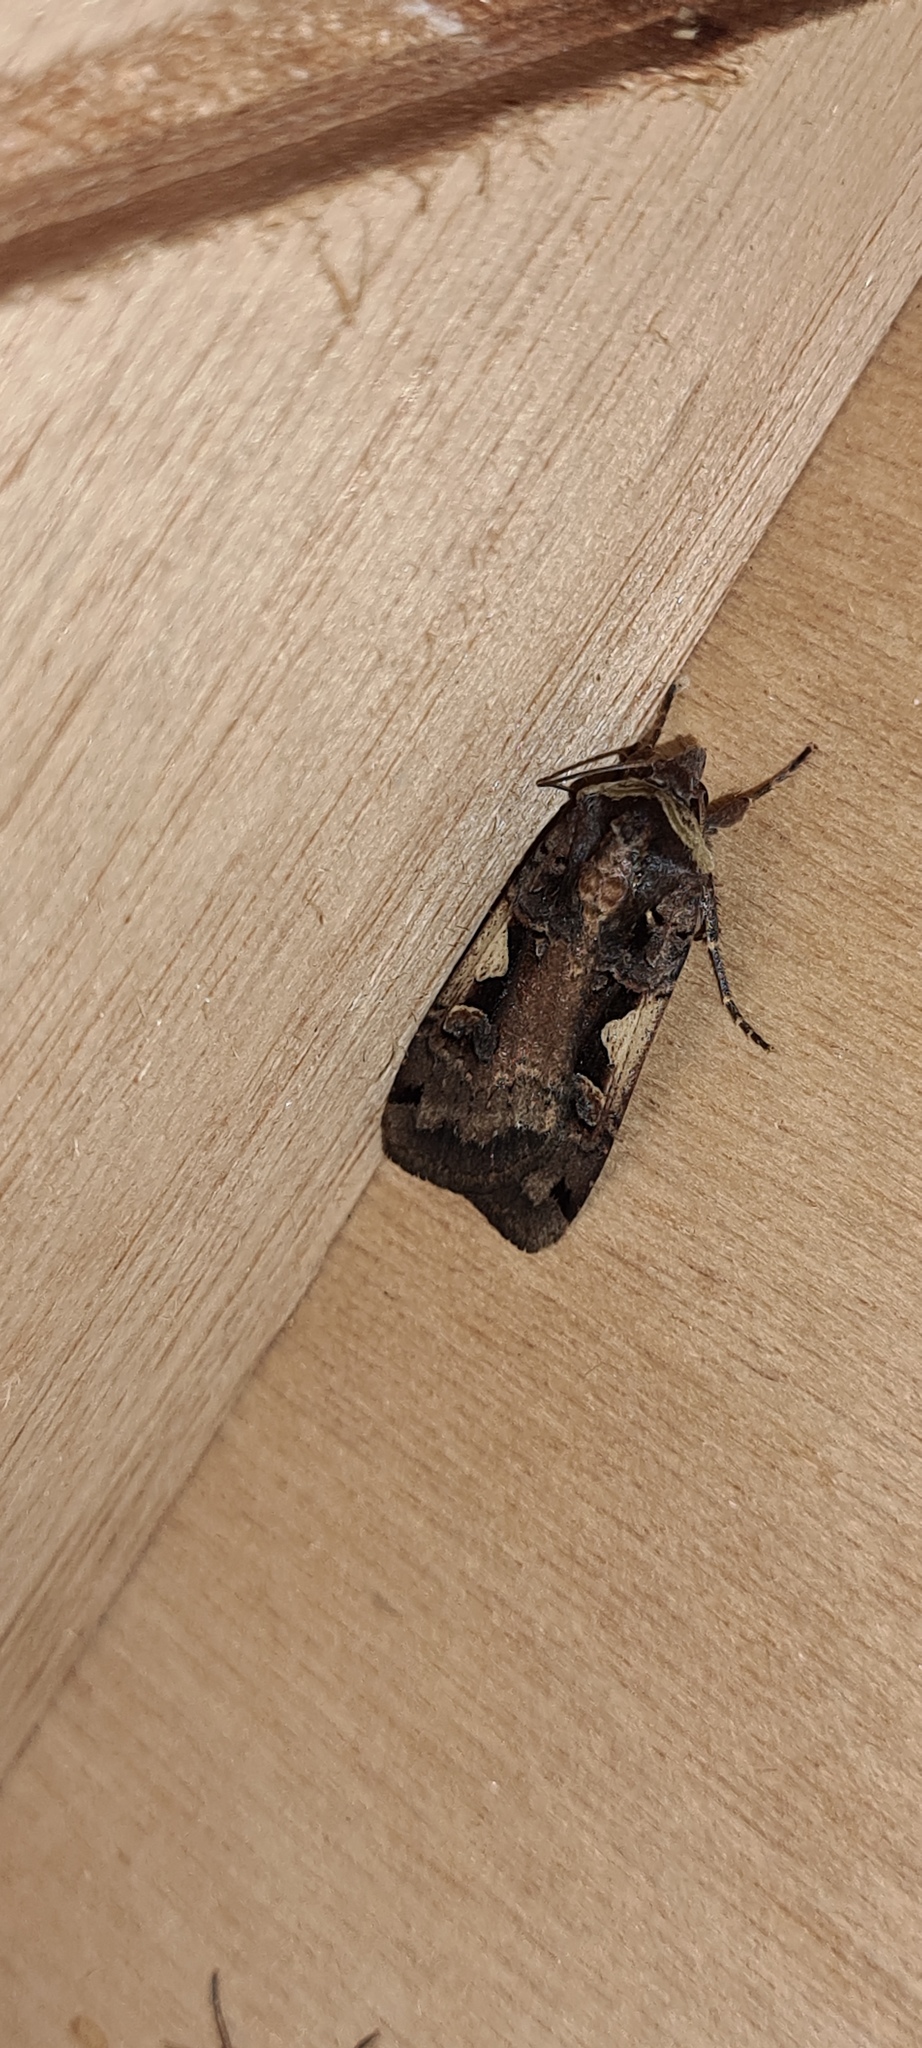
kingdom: Animalia
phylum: Arthropoda
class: Insecta
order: Lepidoptera
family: Noctuidae
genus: Xestia
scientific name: Xestia c-nigrum
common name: Setaceous hebrew character
